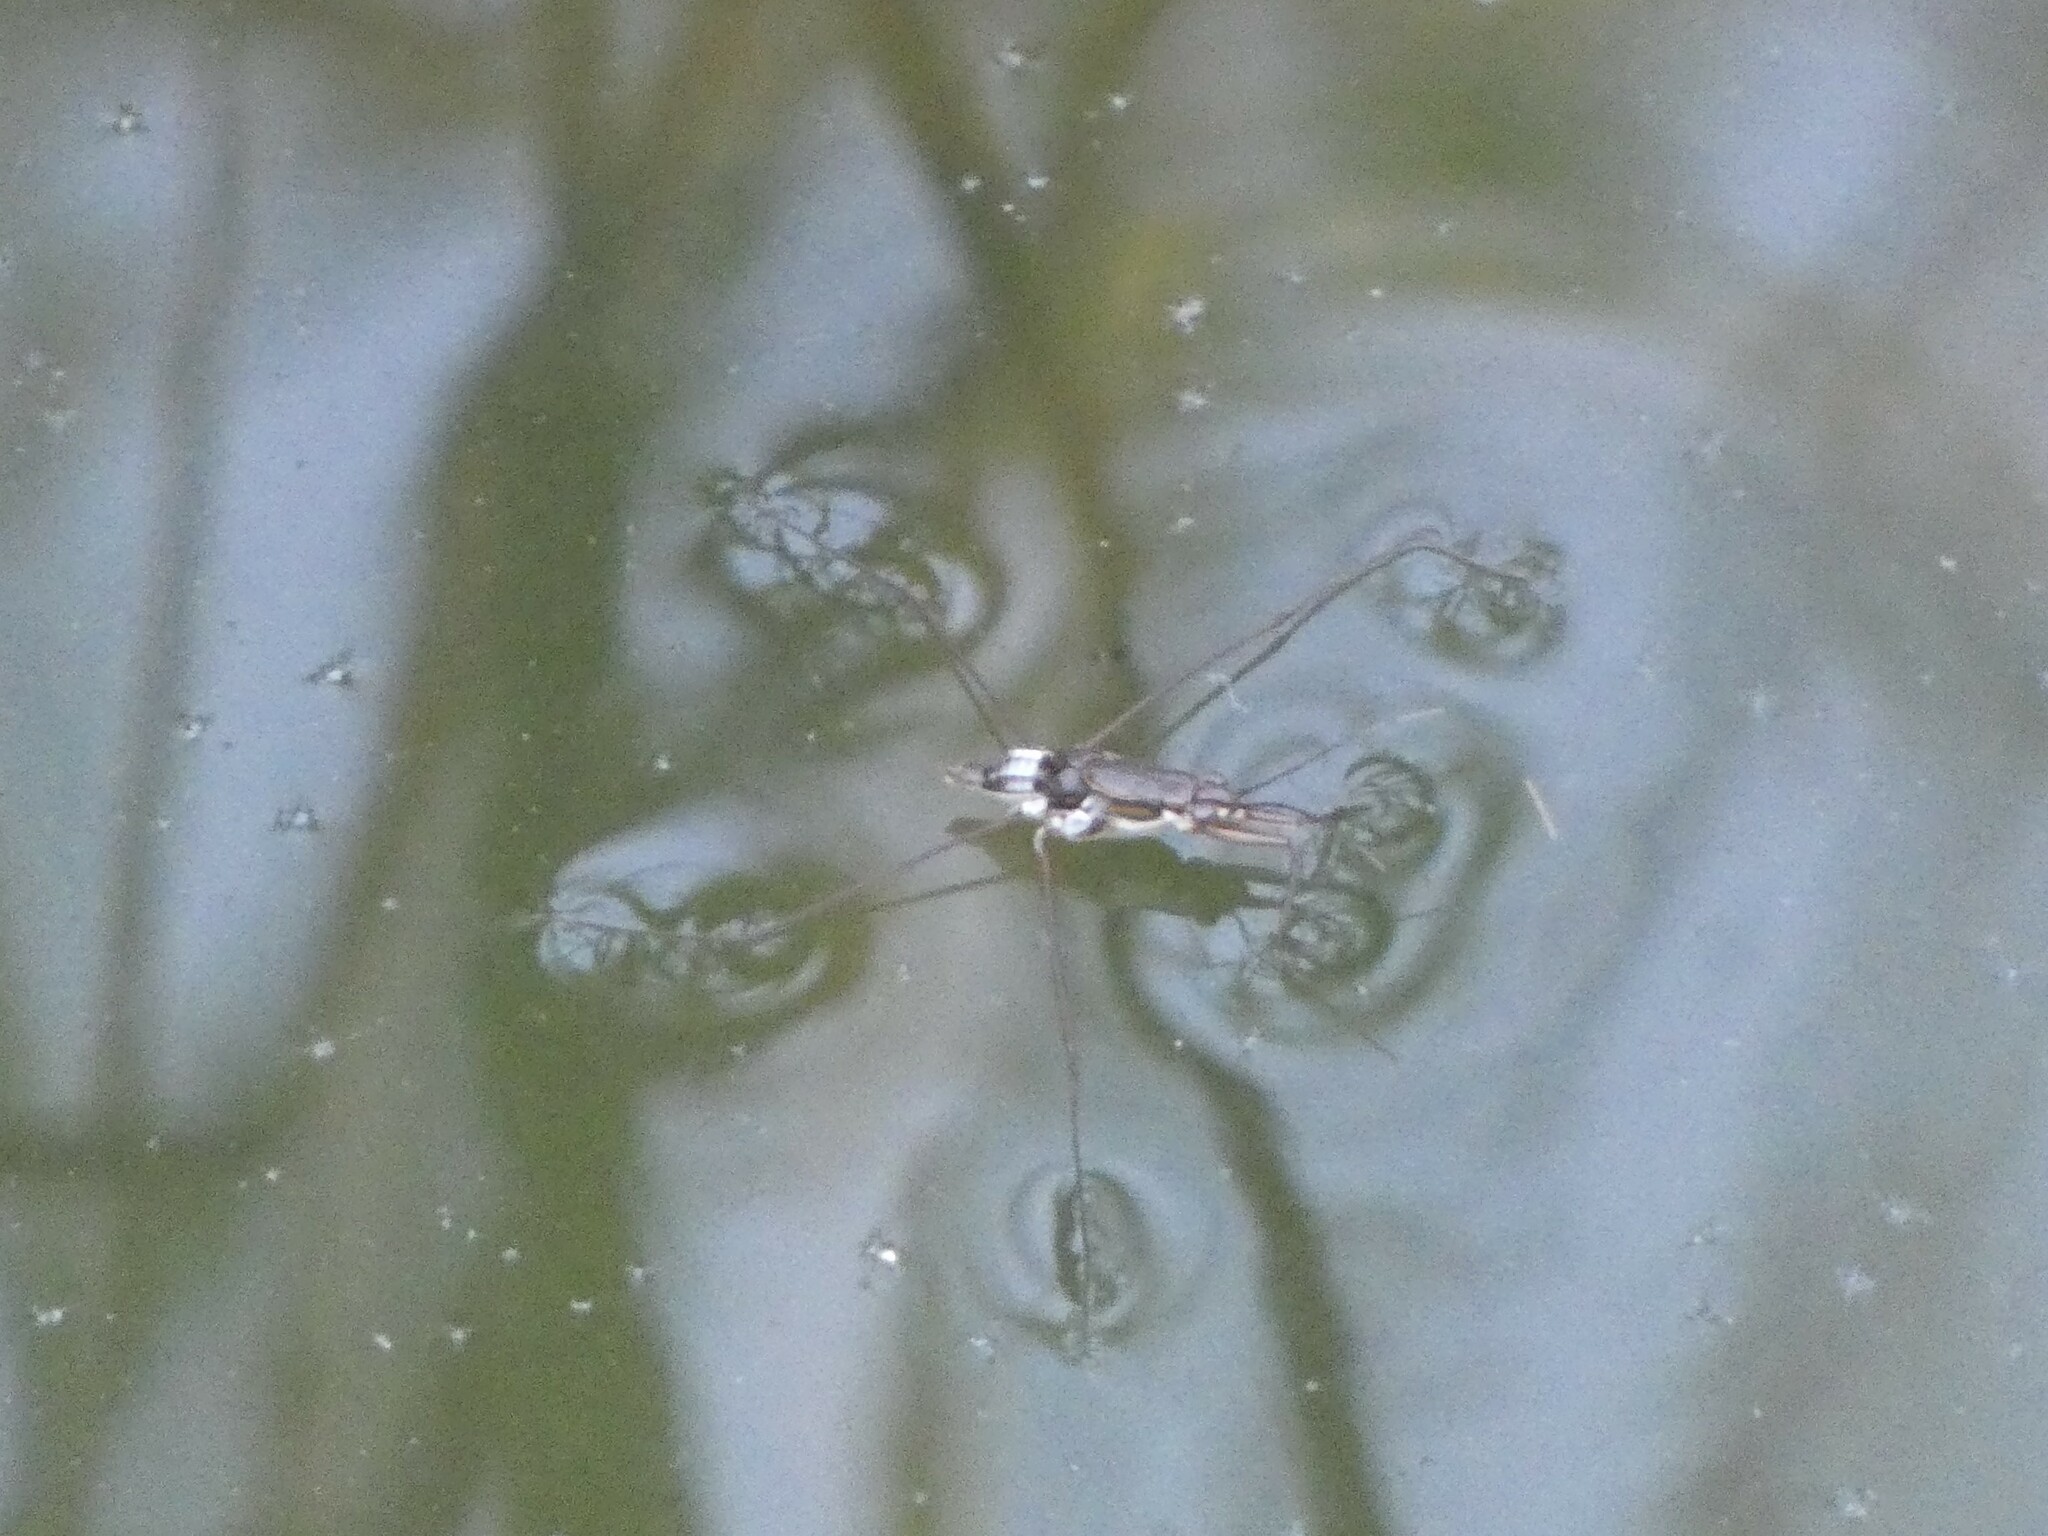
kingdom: Animalia
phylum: Arthropoda
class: Insecta
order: Hemiptera
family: Gerridae
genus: Limnogonus
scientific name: Limnogonus fossarum
